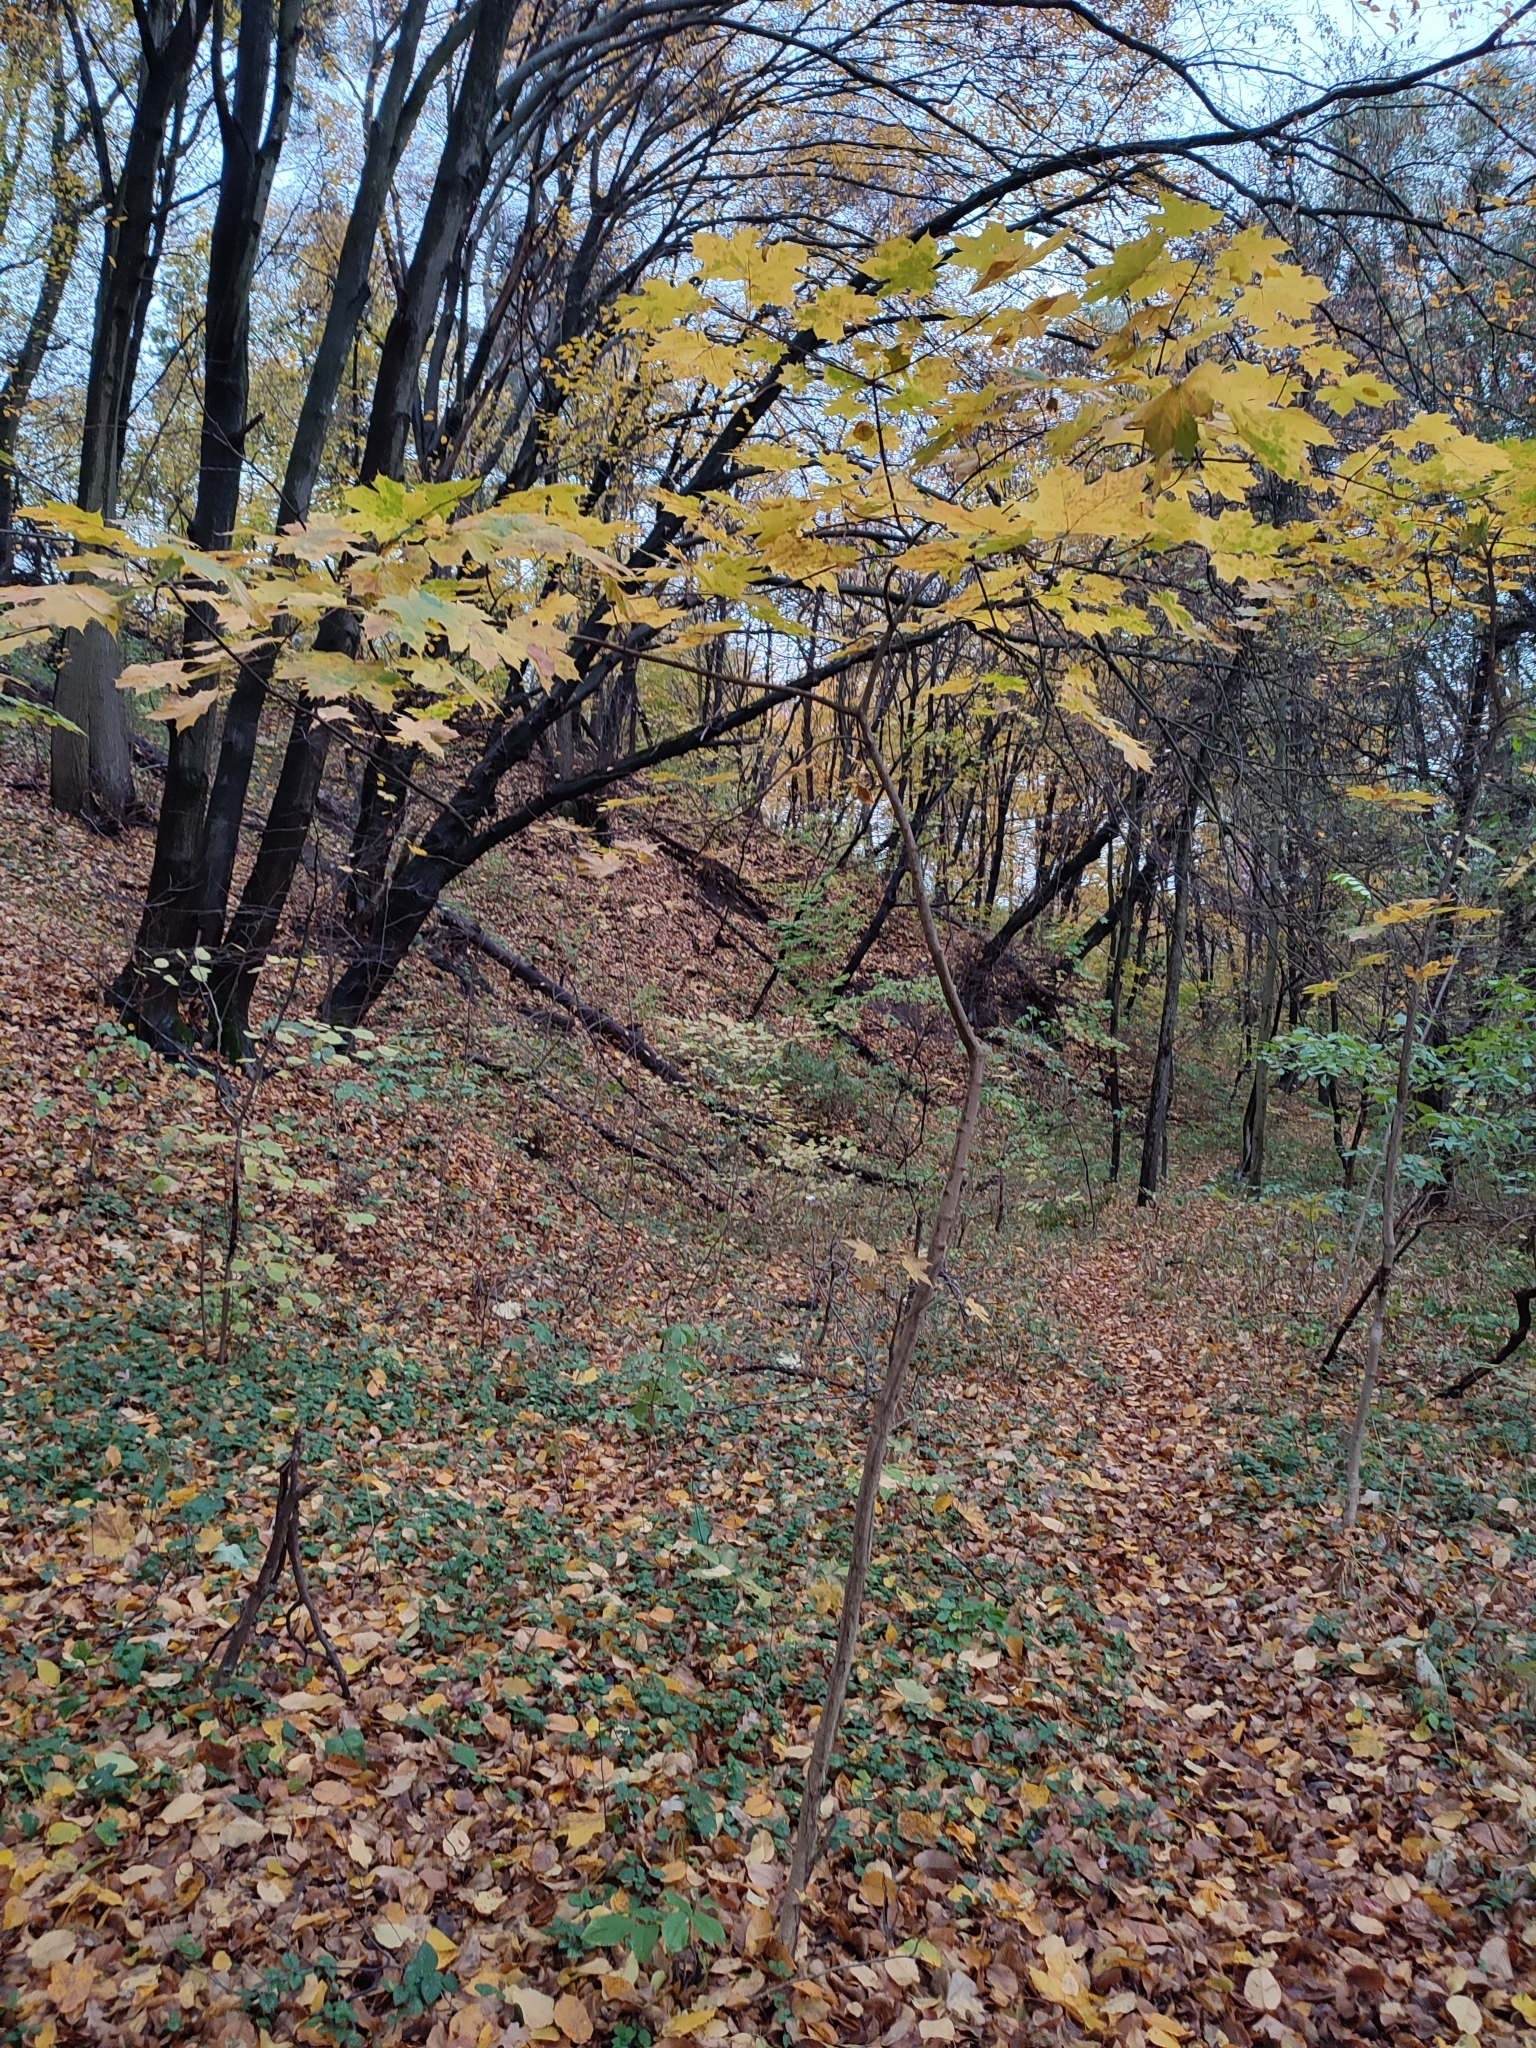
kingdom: Plantae
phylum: Tracheophyta
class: Magnoliopsida
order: Sapindales
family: Sapindaceae
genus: Acer
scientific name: Acer platanoides
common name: Norway maple
